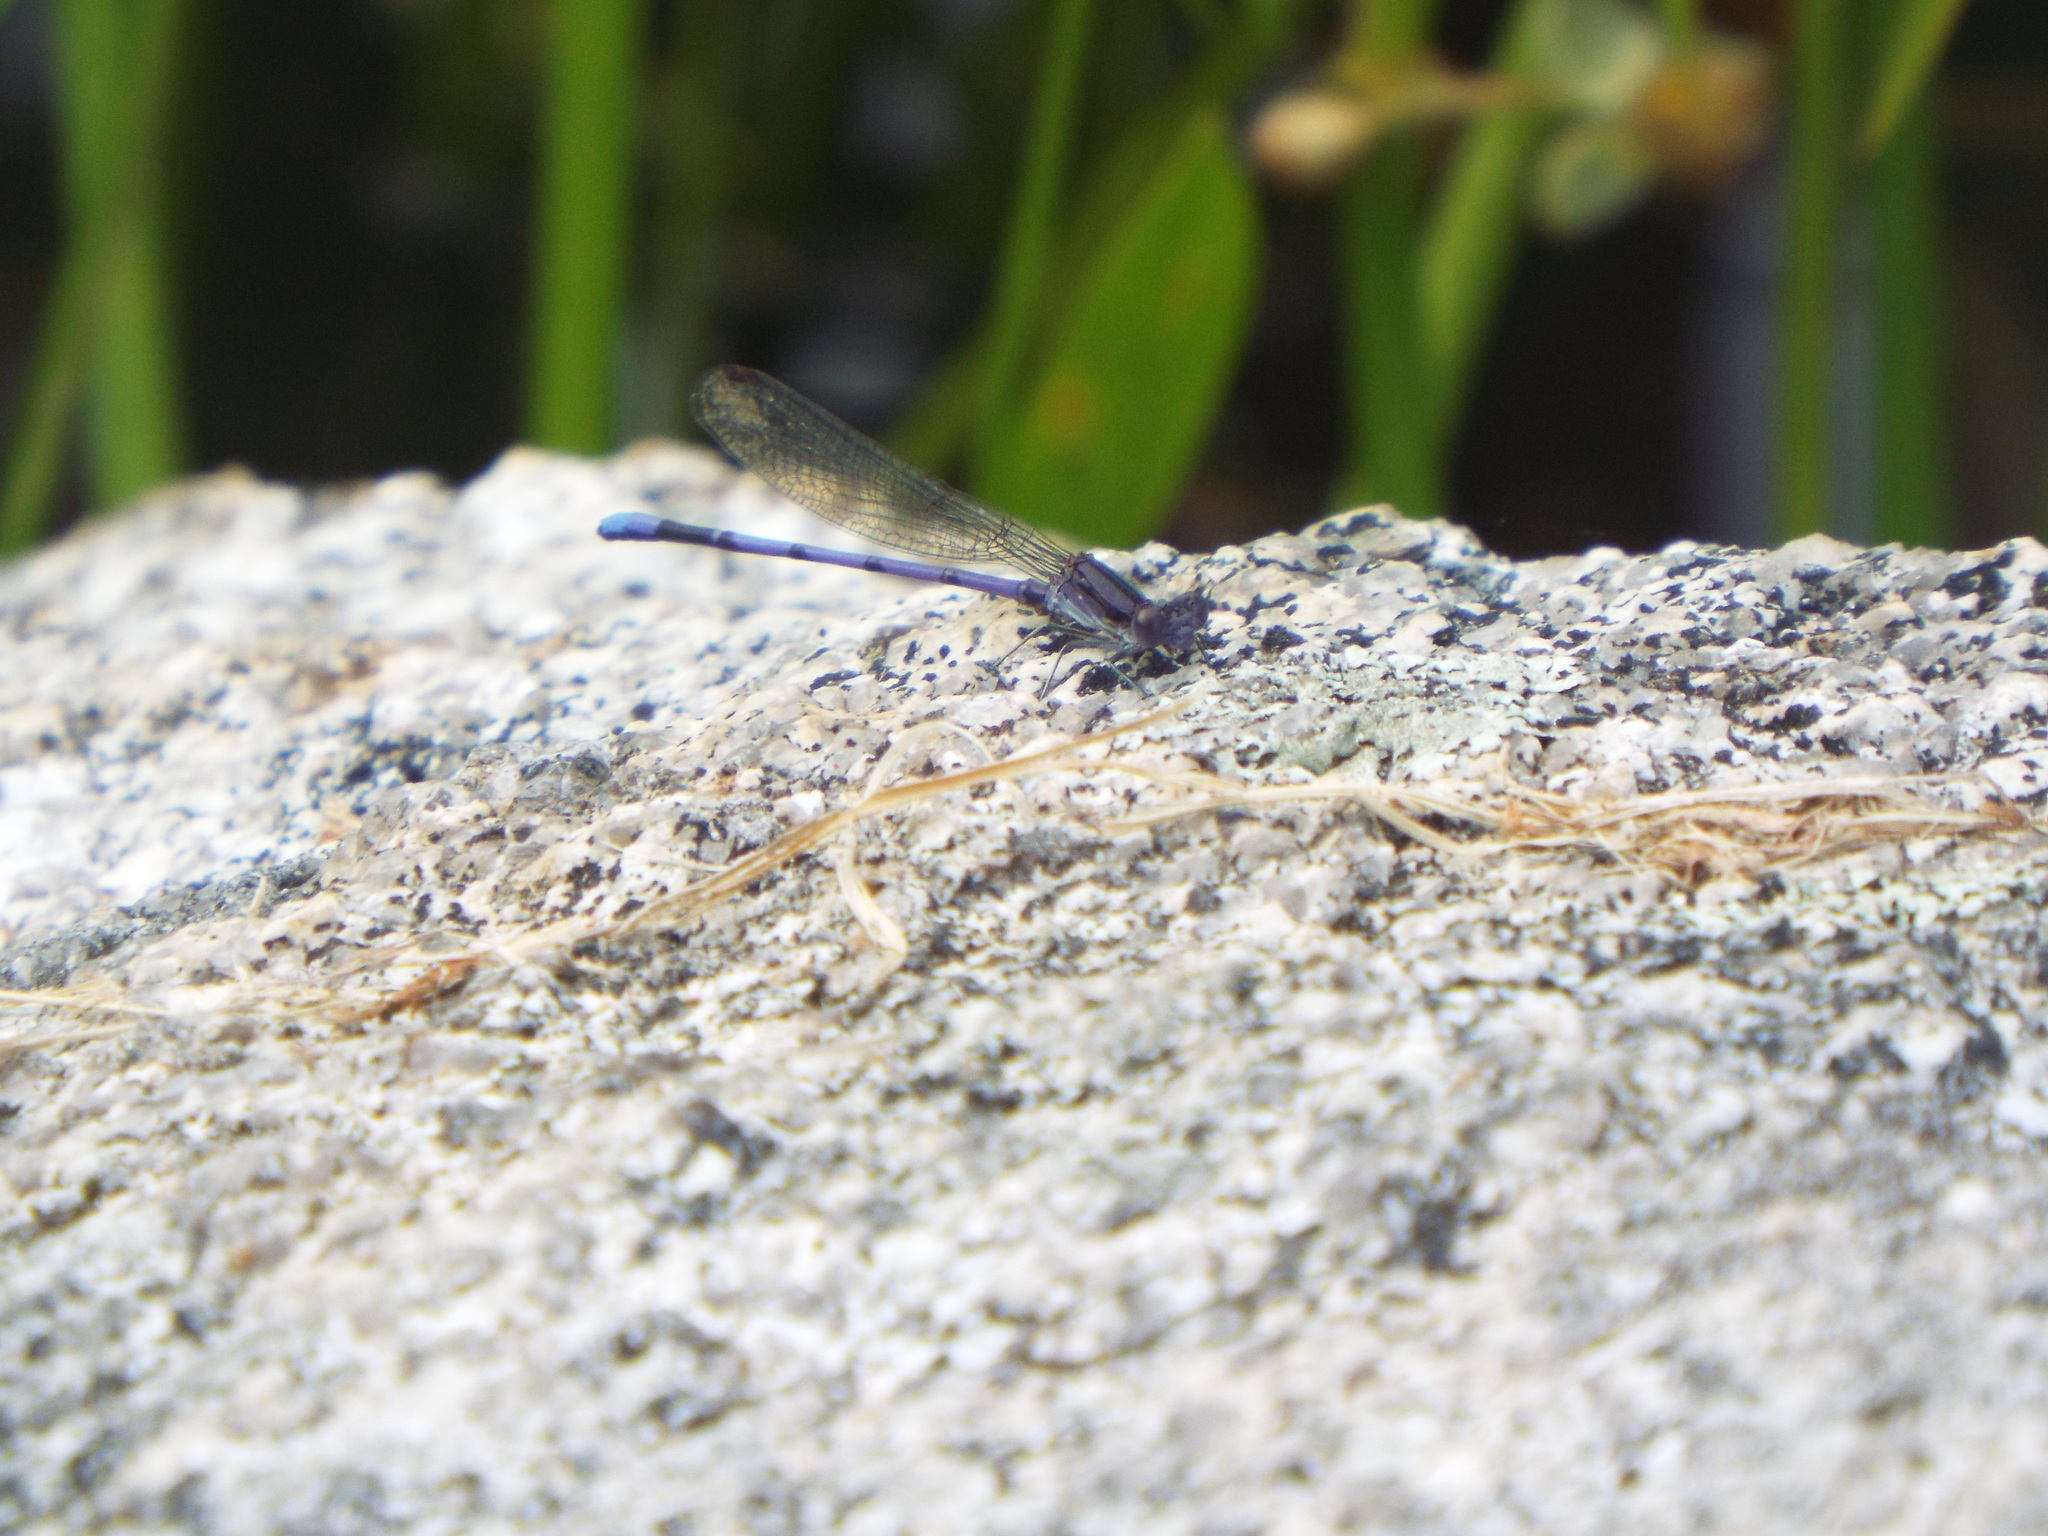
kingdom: Animalia
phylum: Arthropoda
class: Insecta
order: Odonata
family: Coenagrionidae
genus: Argia
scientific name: Argia fumipennis
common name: Variable dancer
